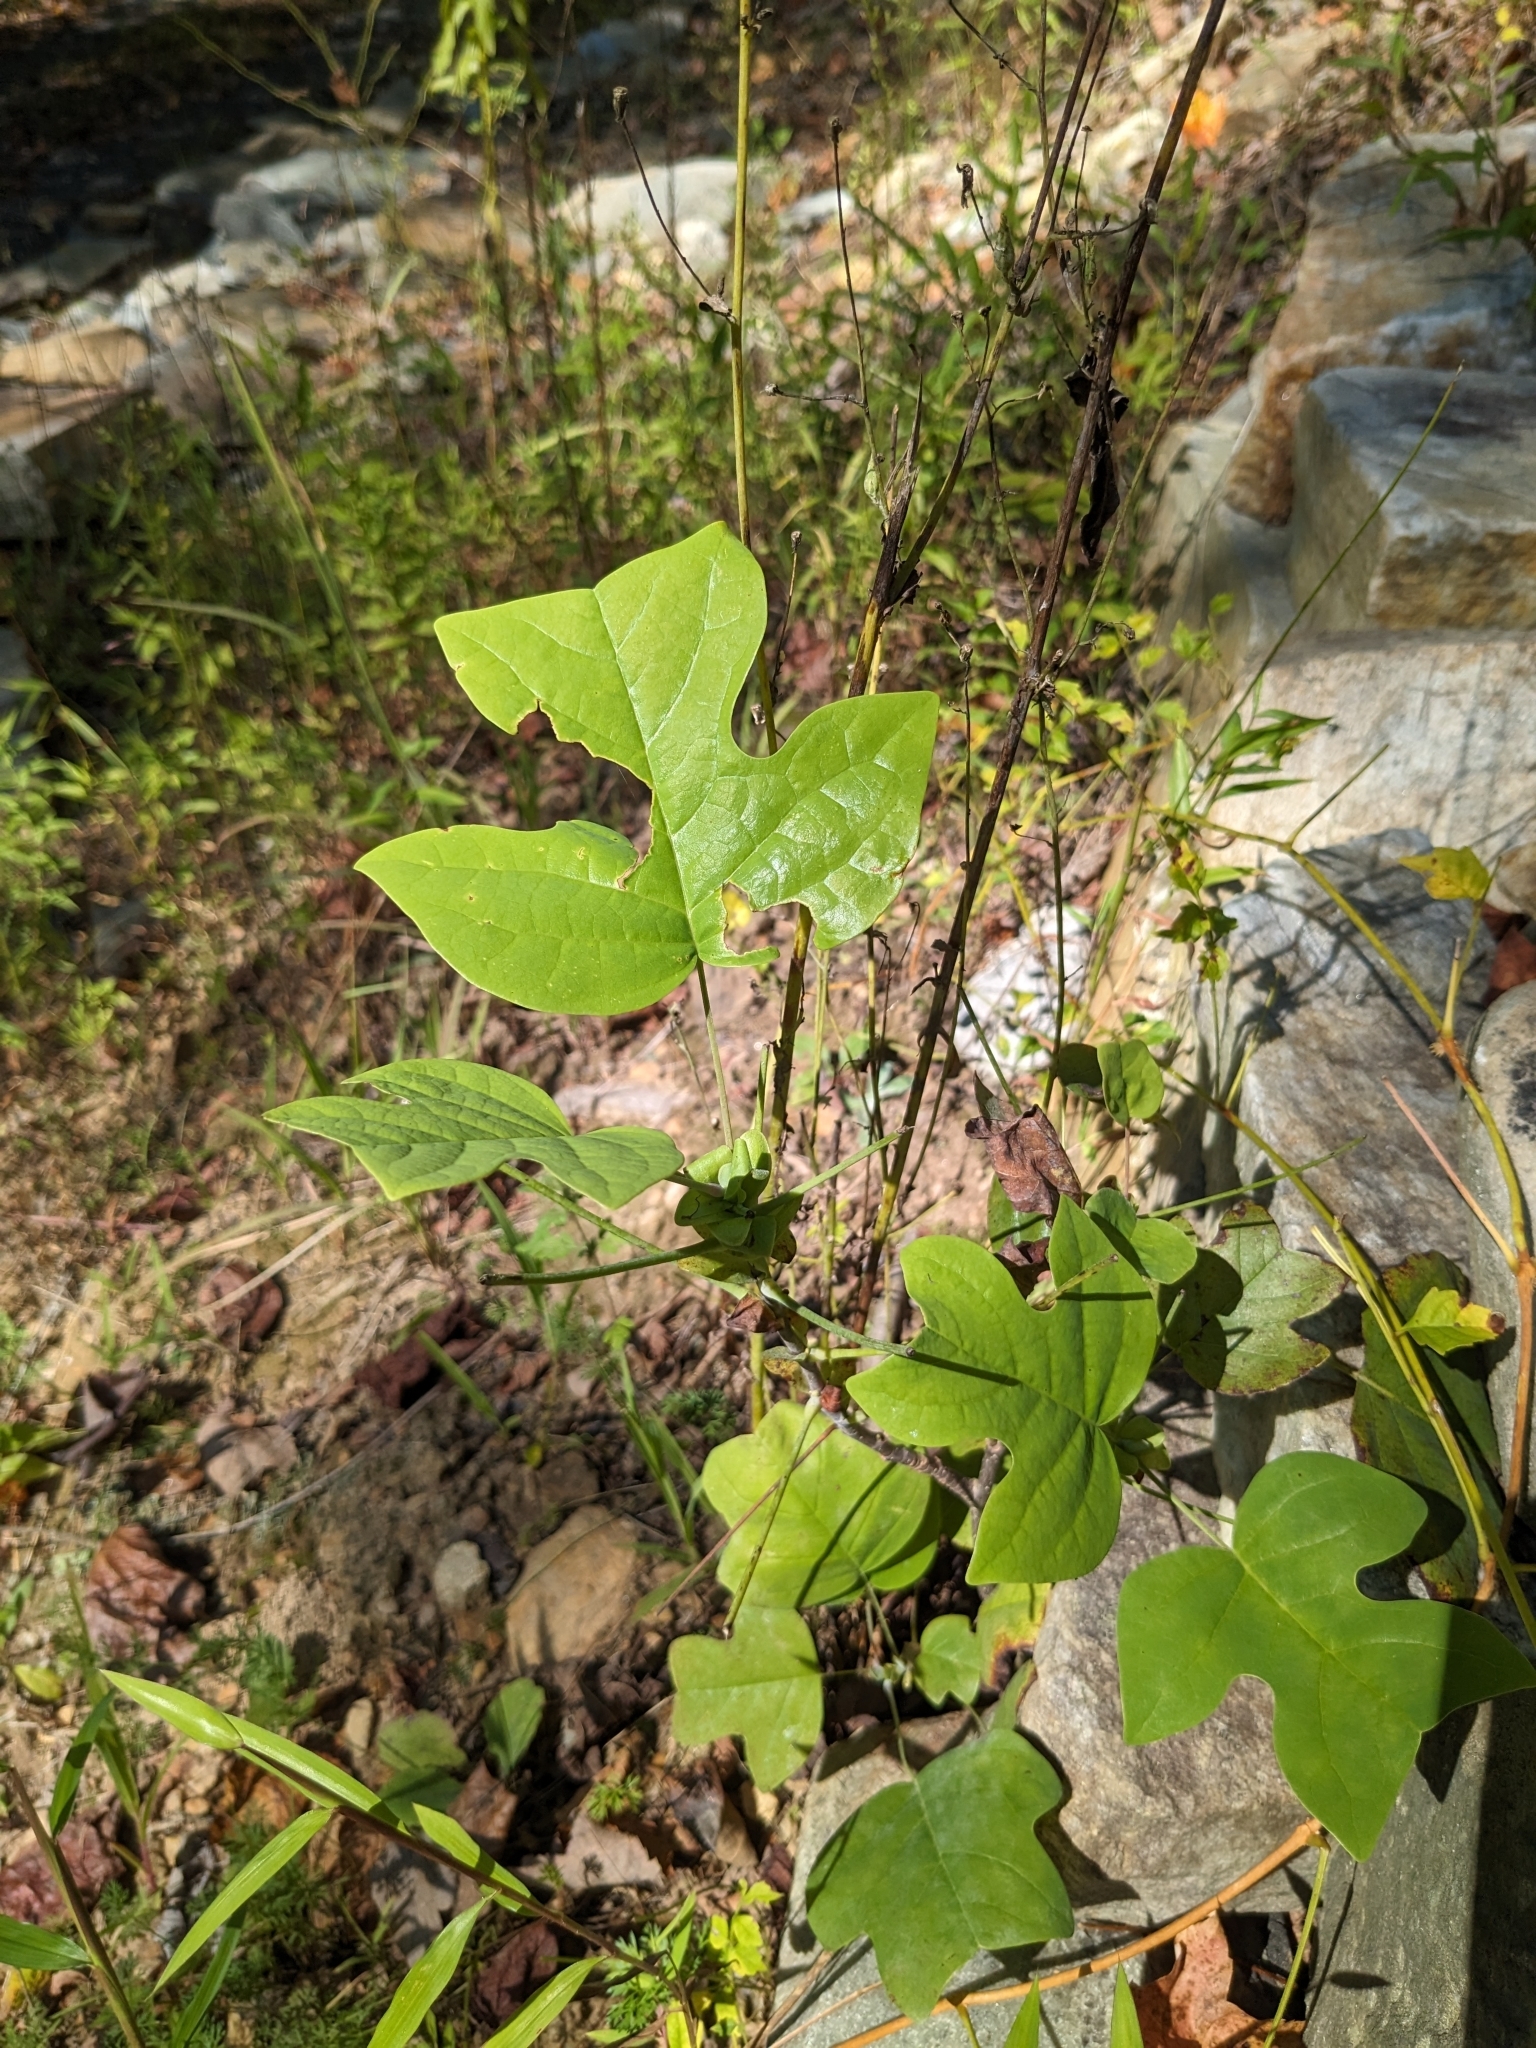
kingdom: Plantae
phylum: Tracheophyta
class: Magnoliopsida
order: Magnoliales
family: Magnoliaceae
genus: Liriodendron
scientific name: Liriodendron tulipifera
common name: Tulip tree
